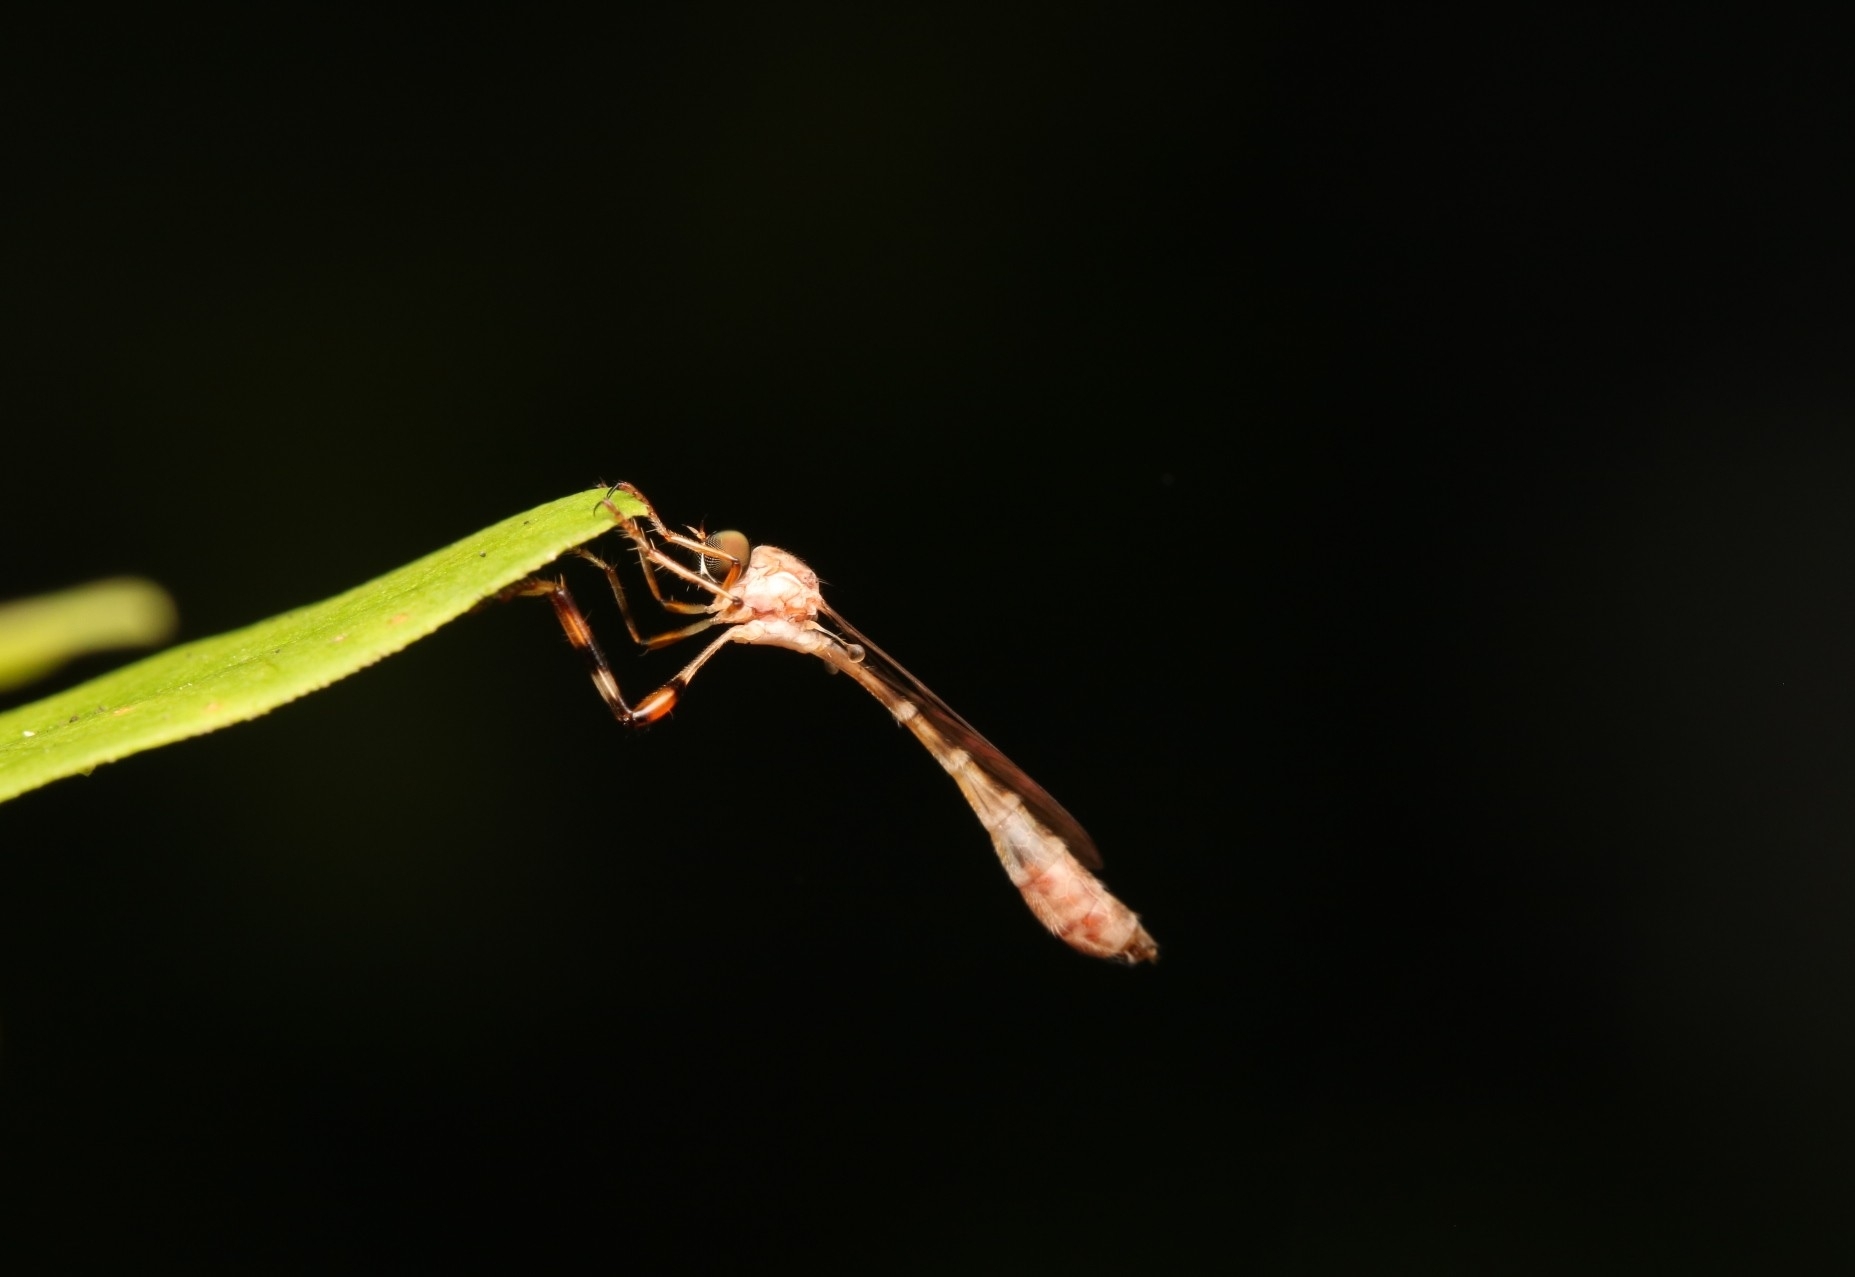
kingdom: Animalia
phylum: Arthropoda
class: Insecta
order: Diptera
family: Asilidae
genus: Psilonyx
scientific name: Psilonyx annulatus
